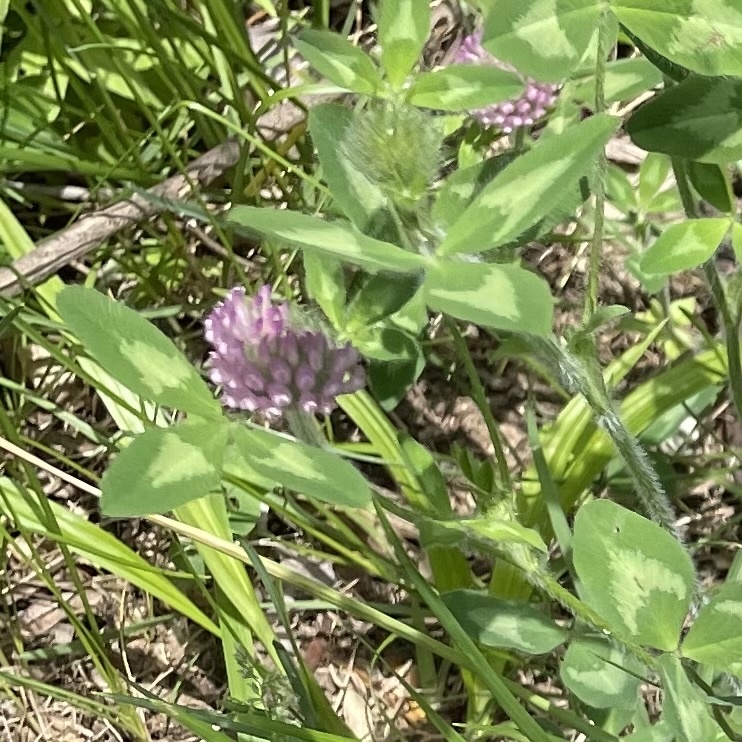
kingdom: Plantae
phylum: Tracheophyta
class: Magnoliopsida
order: Fabales
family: Fabaceae
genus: Trifolium
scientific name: Trifolium pratense
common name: Red clover
